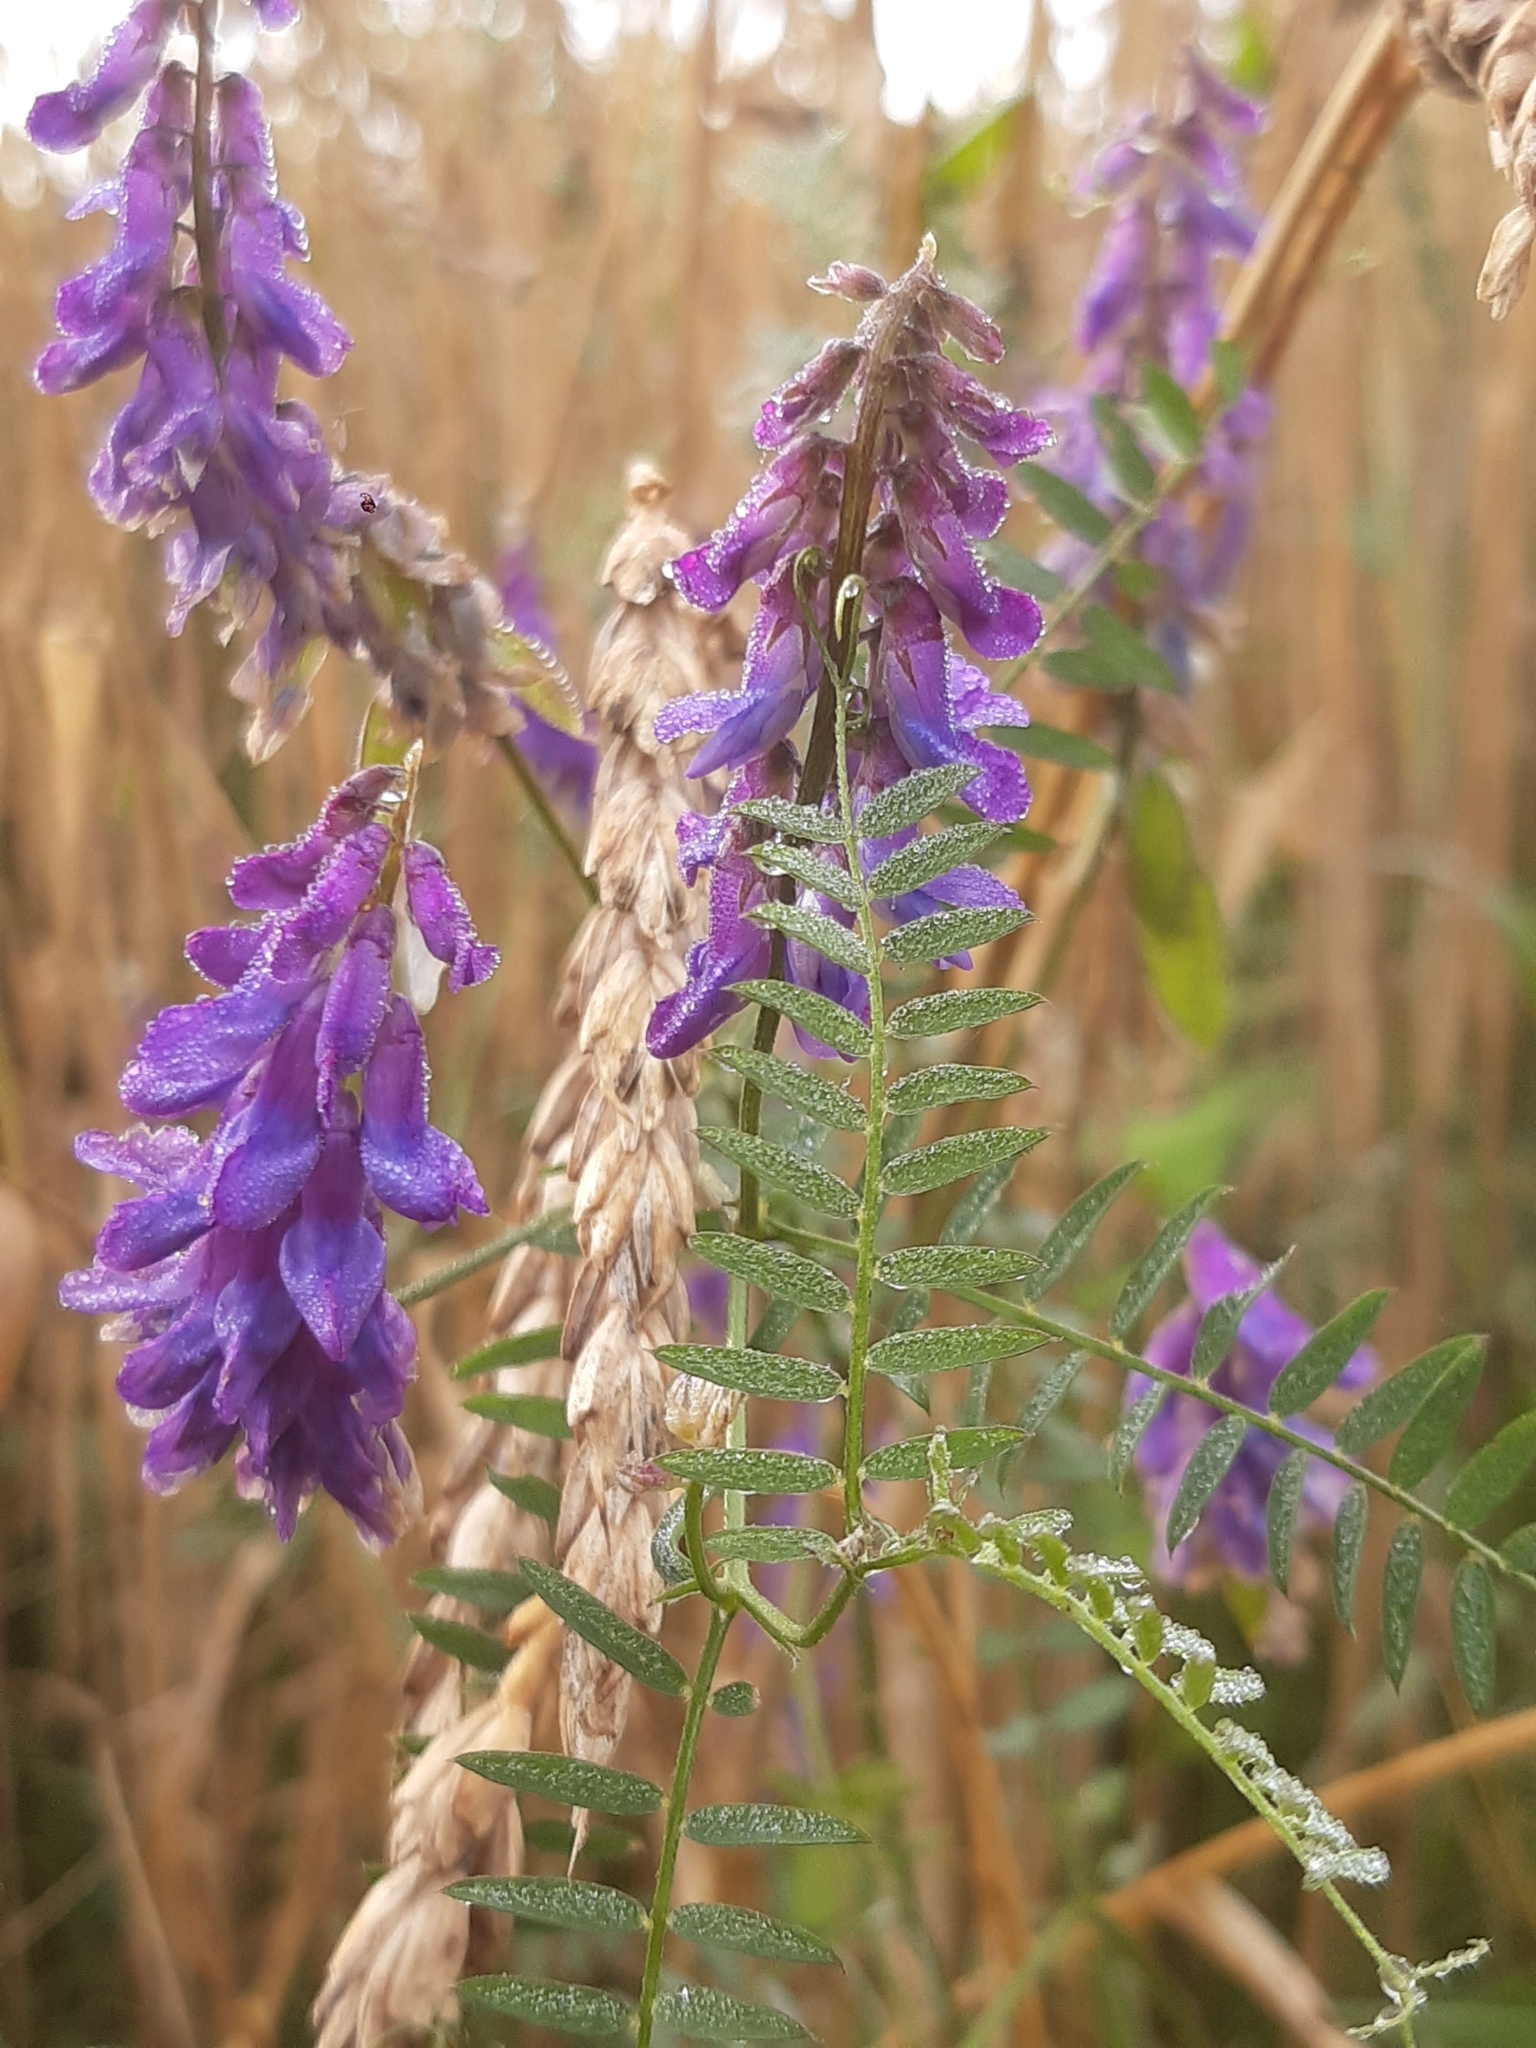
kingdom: Plantae
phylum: Tracheophyta
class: Magnoliopsida
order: Fabales
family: Fabaceae
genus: Vicia
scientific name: Vicia cracca
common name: Bird vetch
